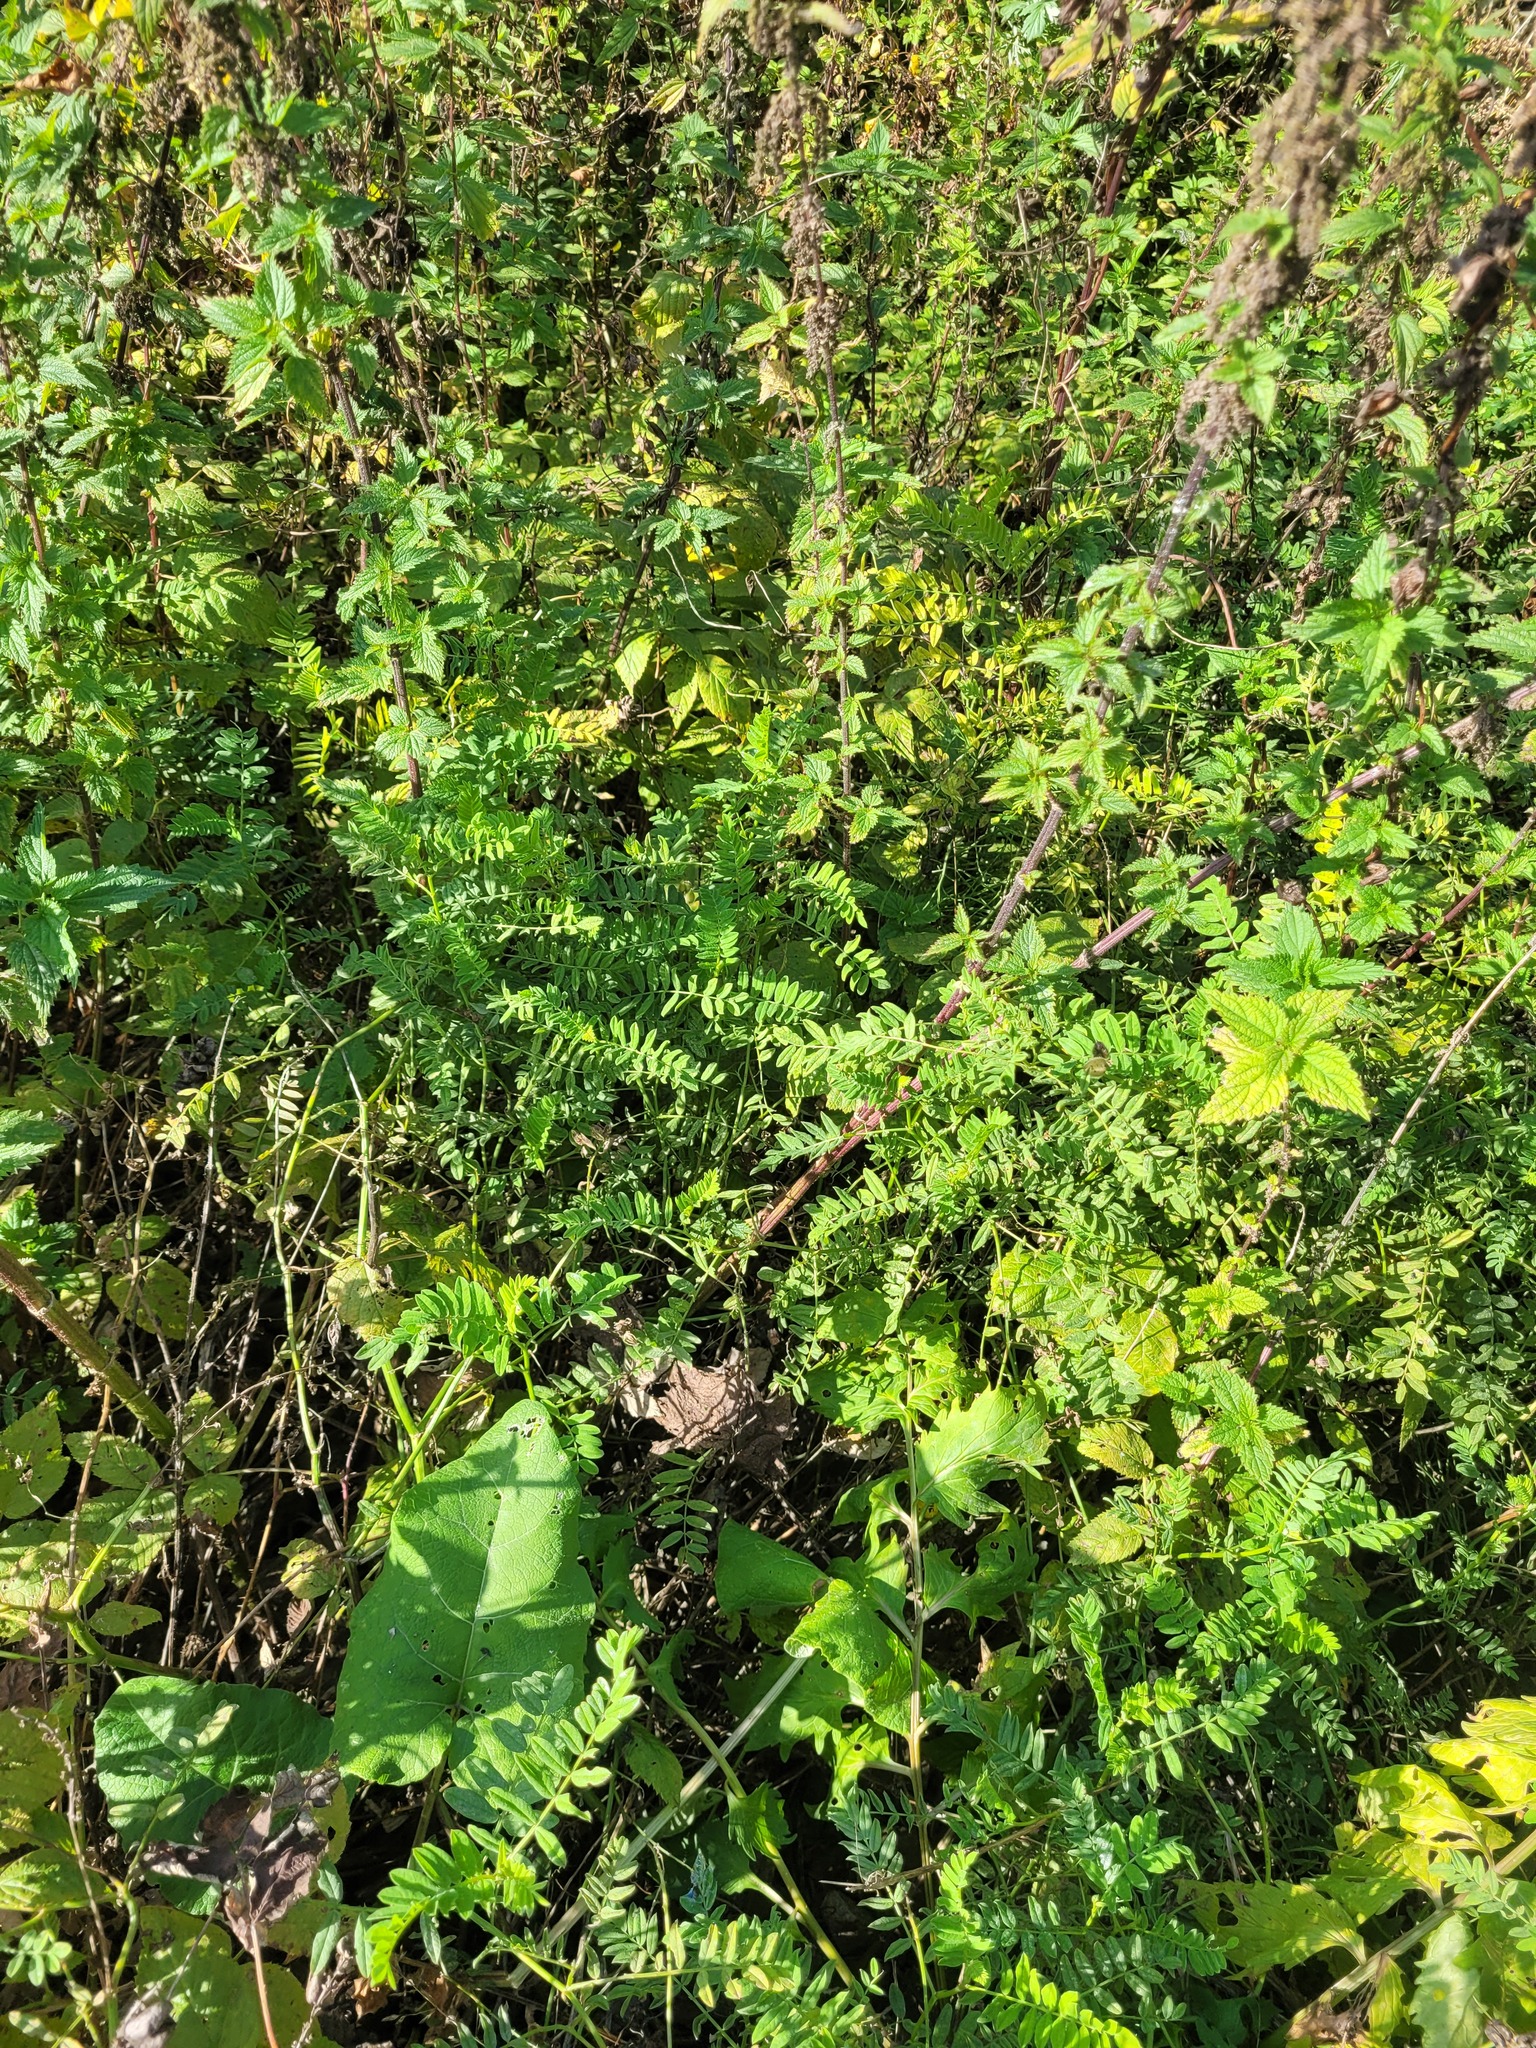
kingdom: Plantae
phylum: Tracheophyta
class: Magnoliopsida
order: Fabales
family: Fabaceae
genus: Astragalus
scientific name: Astragalus cicer
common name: Chick-pea milk-vetch
